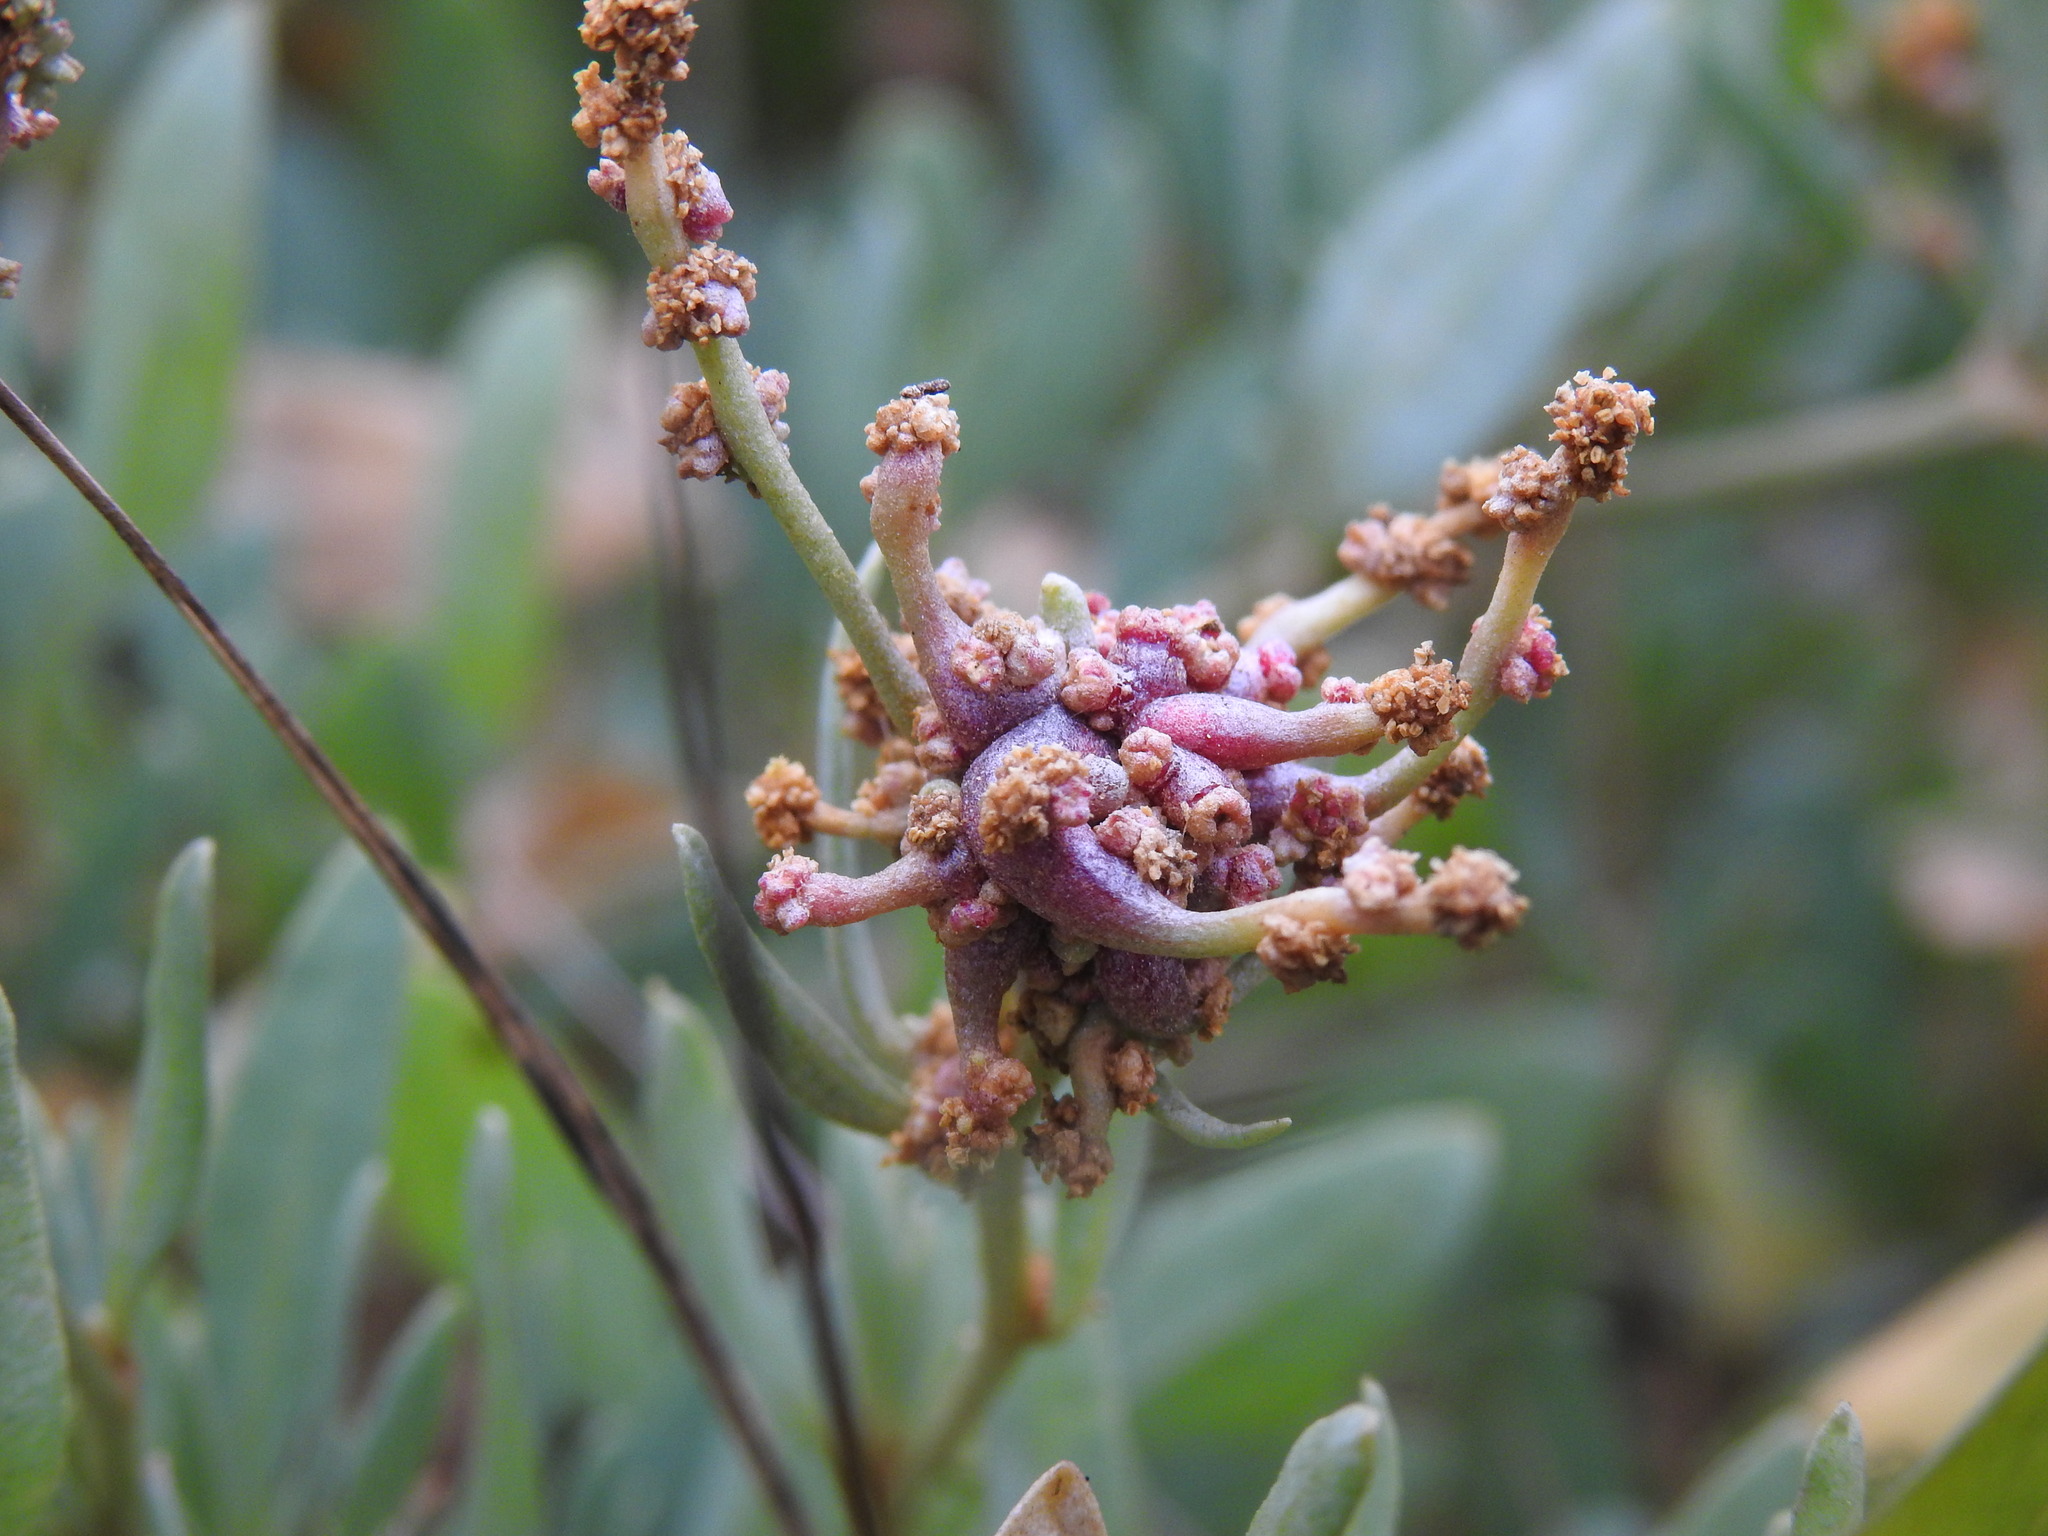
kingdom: Animalia
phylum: Arthropoda
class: Arachnida
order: Trombidiformes
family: Eriophyidae
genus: Eriophyes
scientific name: Eriophyes obiones
